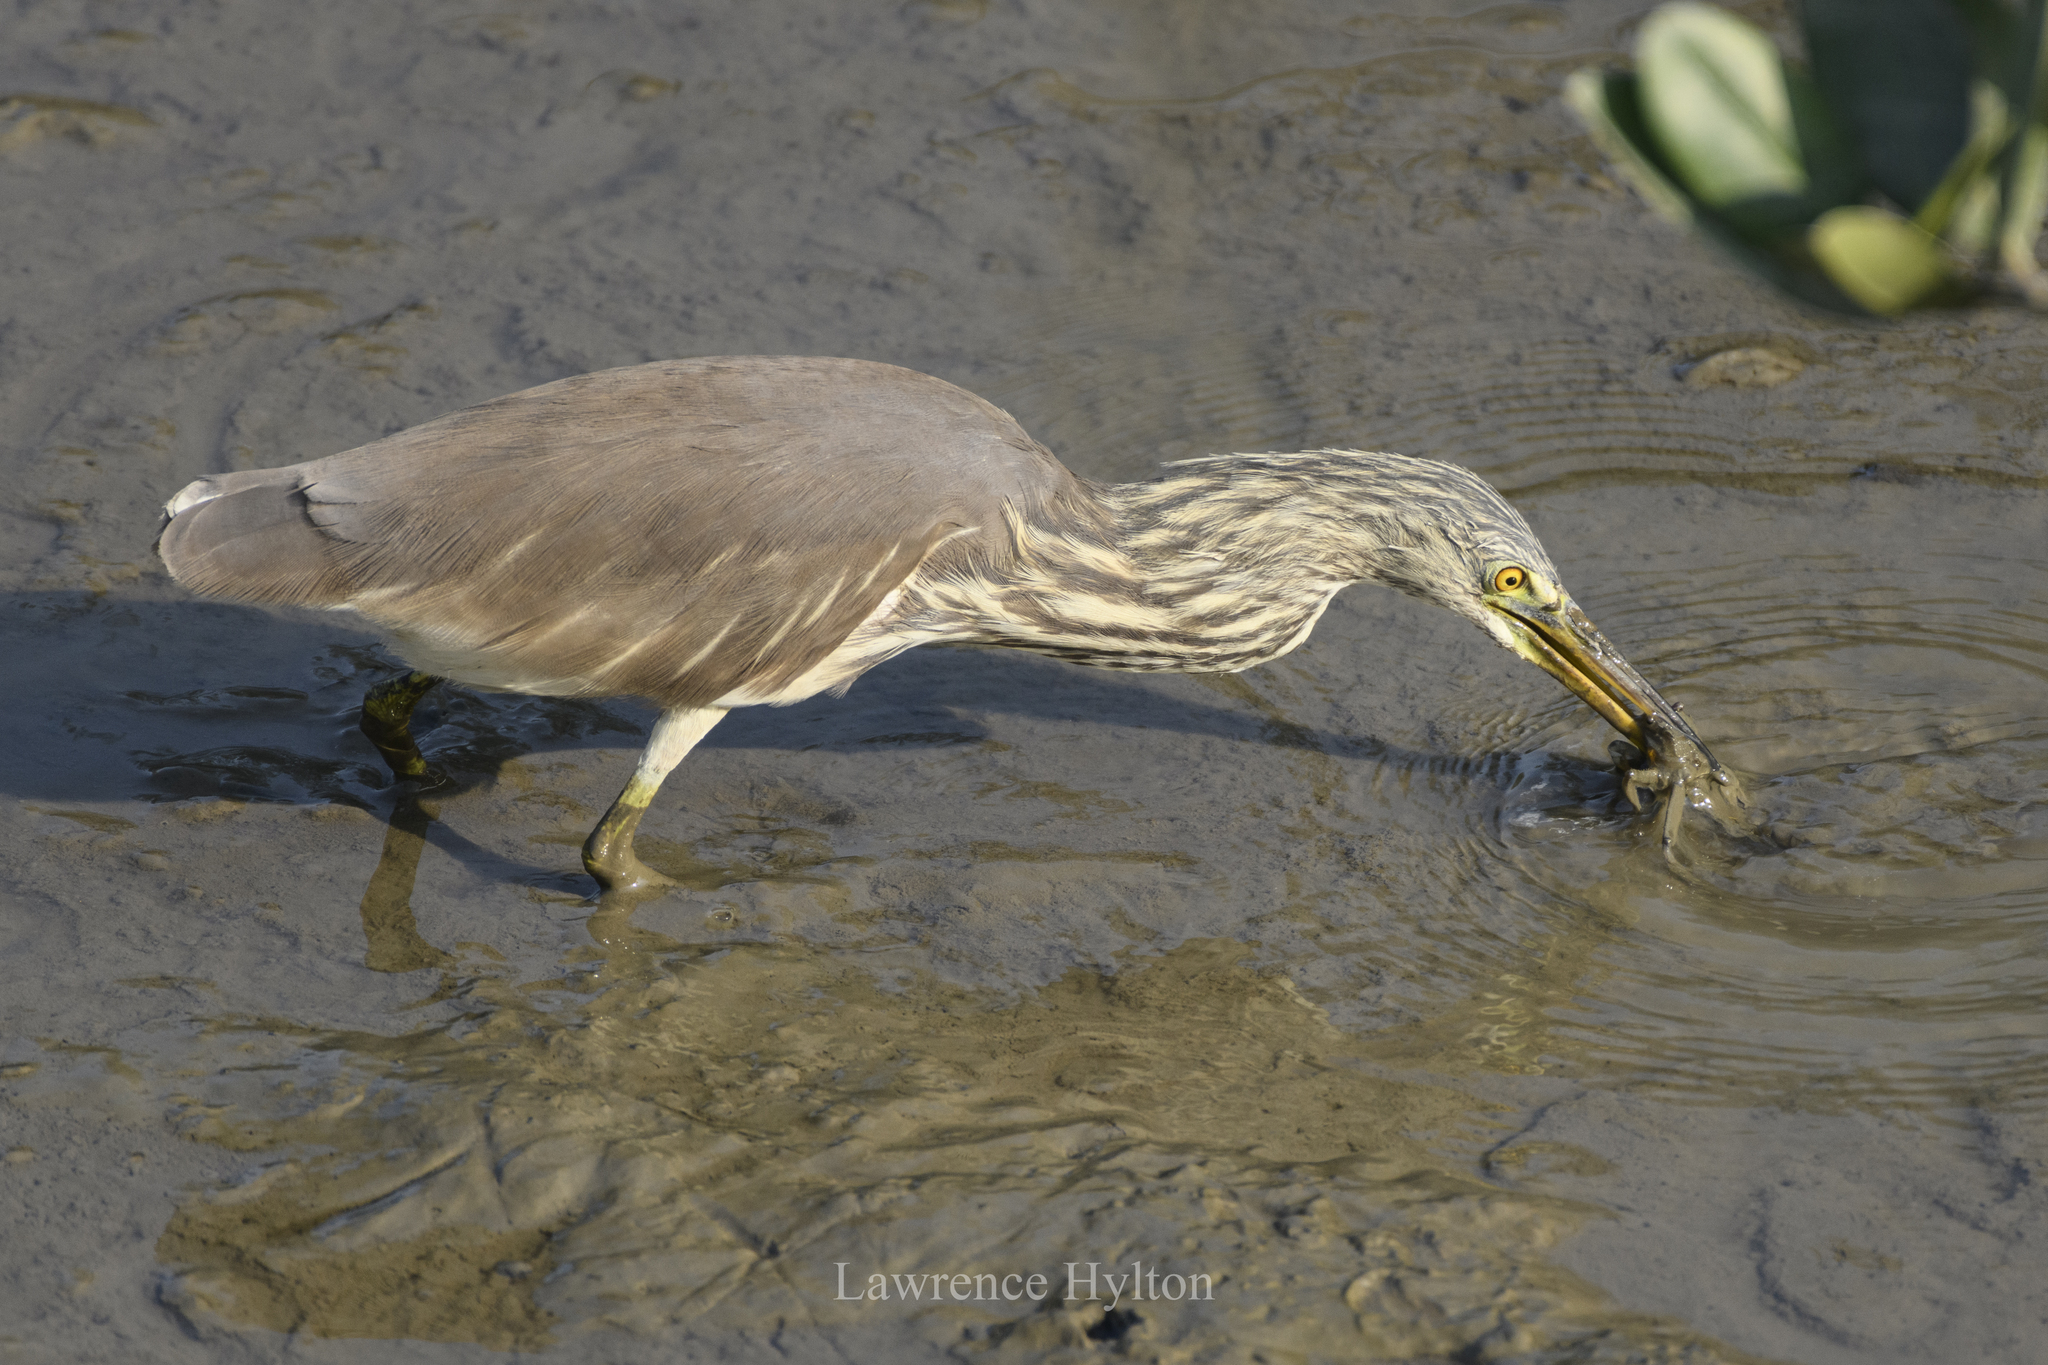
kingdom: Animalia
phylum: Chordata
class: Aves
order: Pelecaniformes
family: Ardeidae
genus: Ardeola
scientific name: Ardeola bacchus
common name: Chinese pond heron
